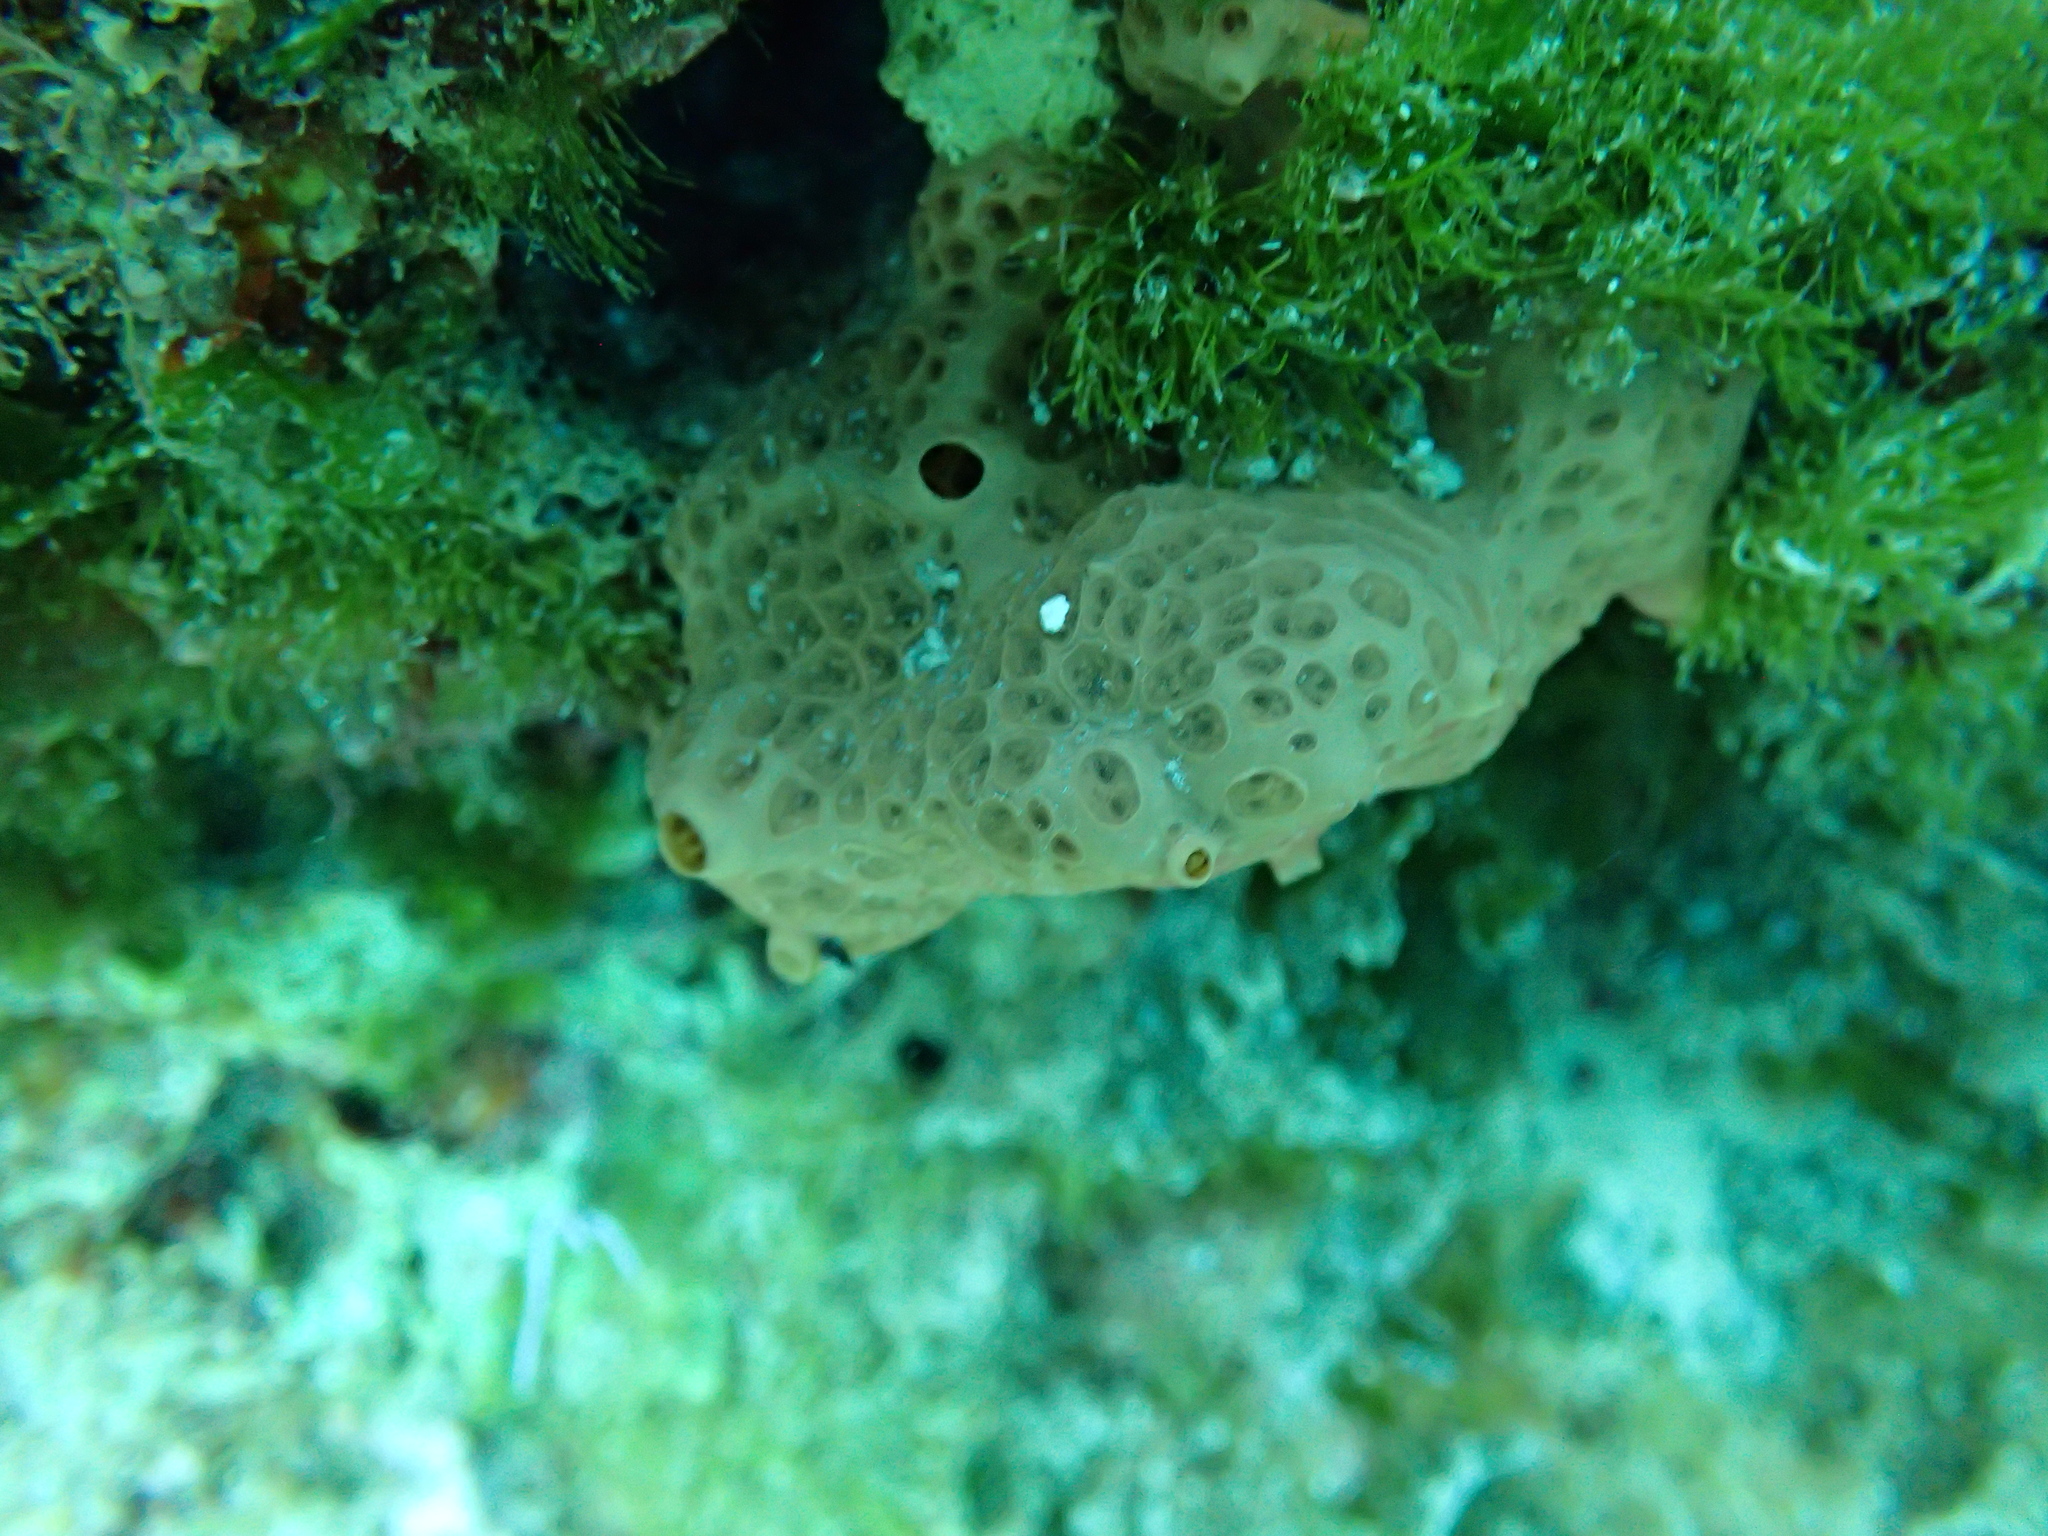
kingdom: Animalia
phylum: Porifera
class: Demospongiae
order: Poecilosclerida
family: Hymedesmiidae
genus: Hemimycale
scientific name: Hemimycale columella
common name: Crater sponge
